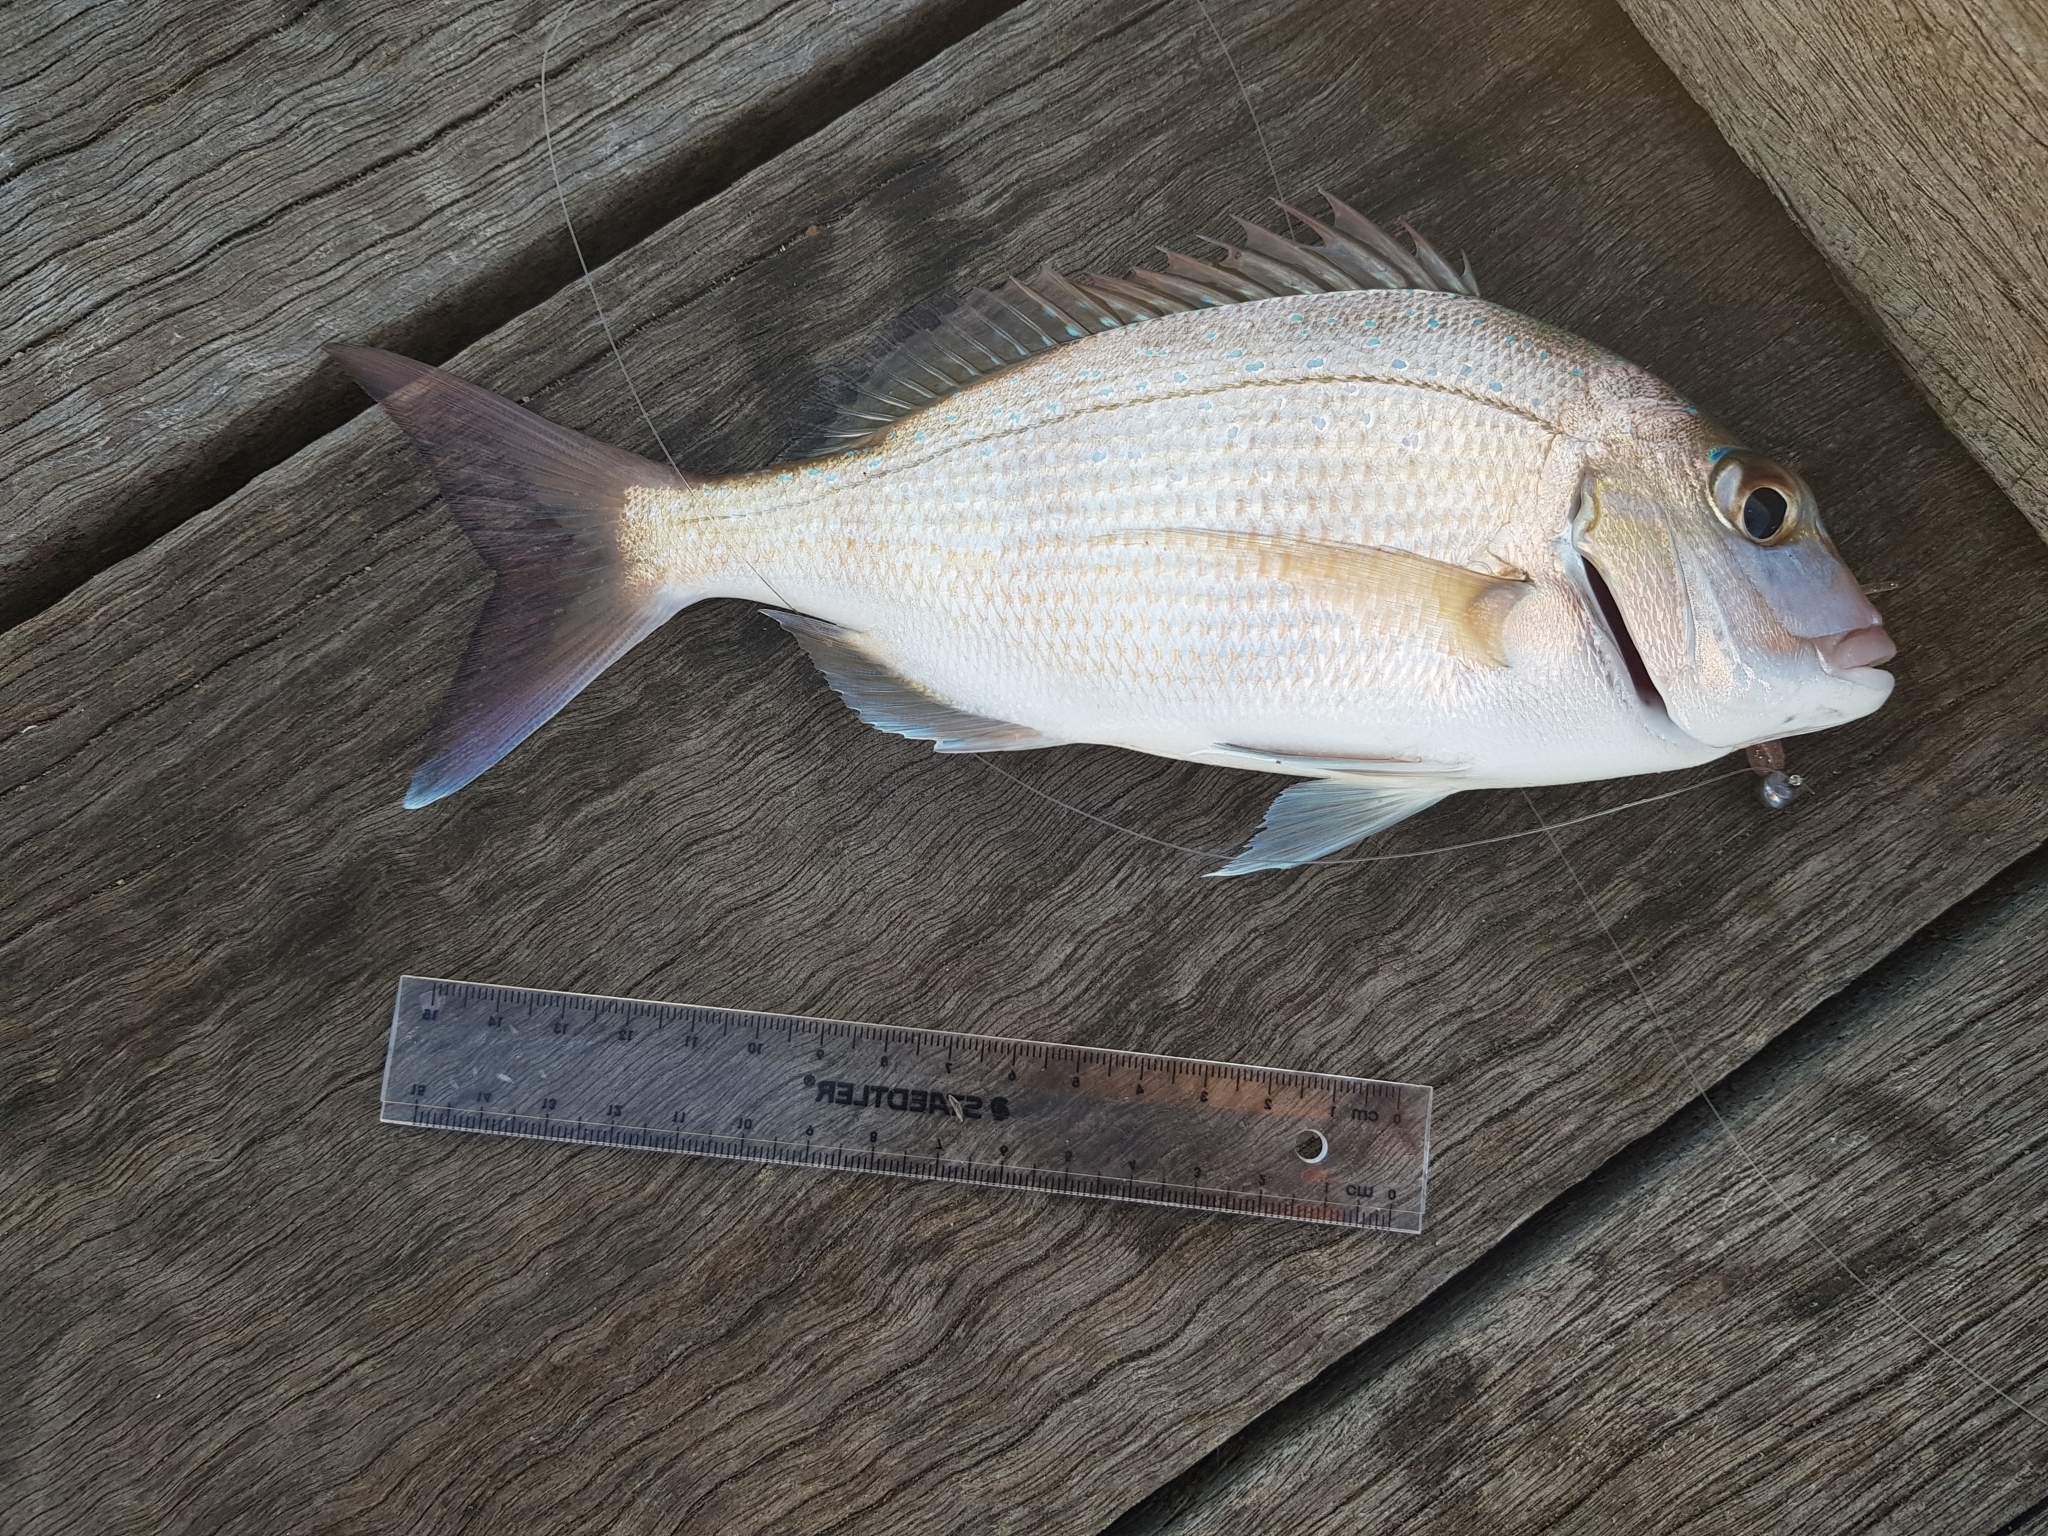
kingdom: Animalia
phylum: Chordata
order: Perciformes
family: Sparidae
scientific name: Sparidae
